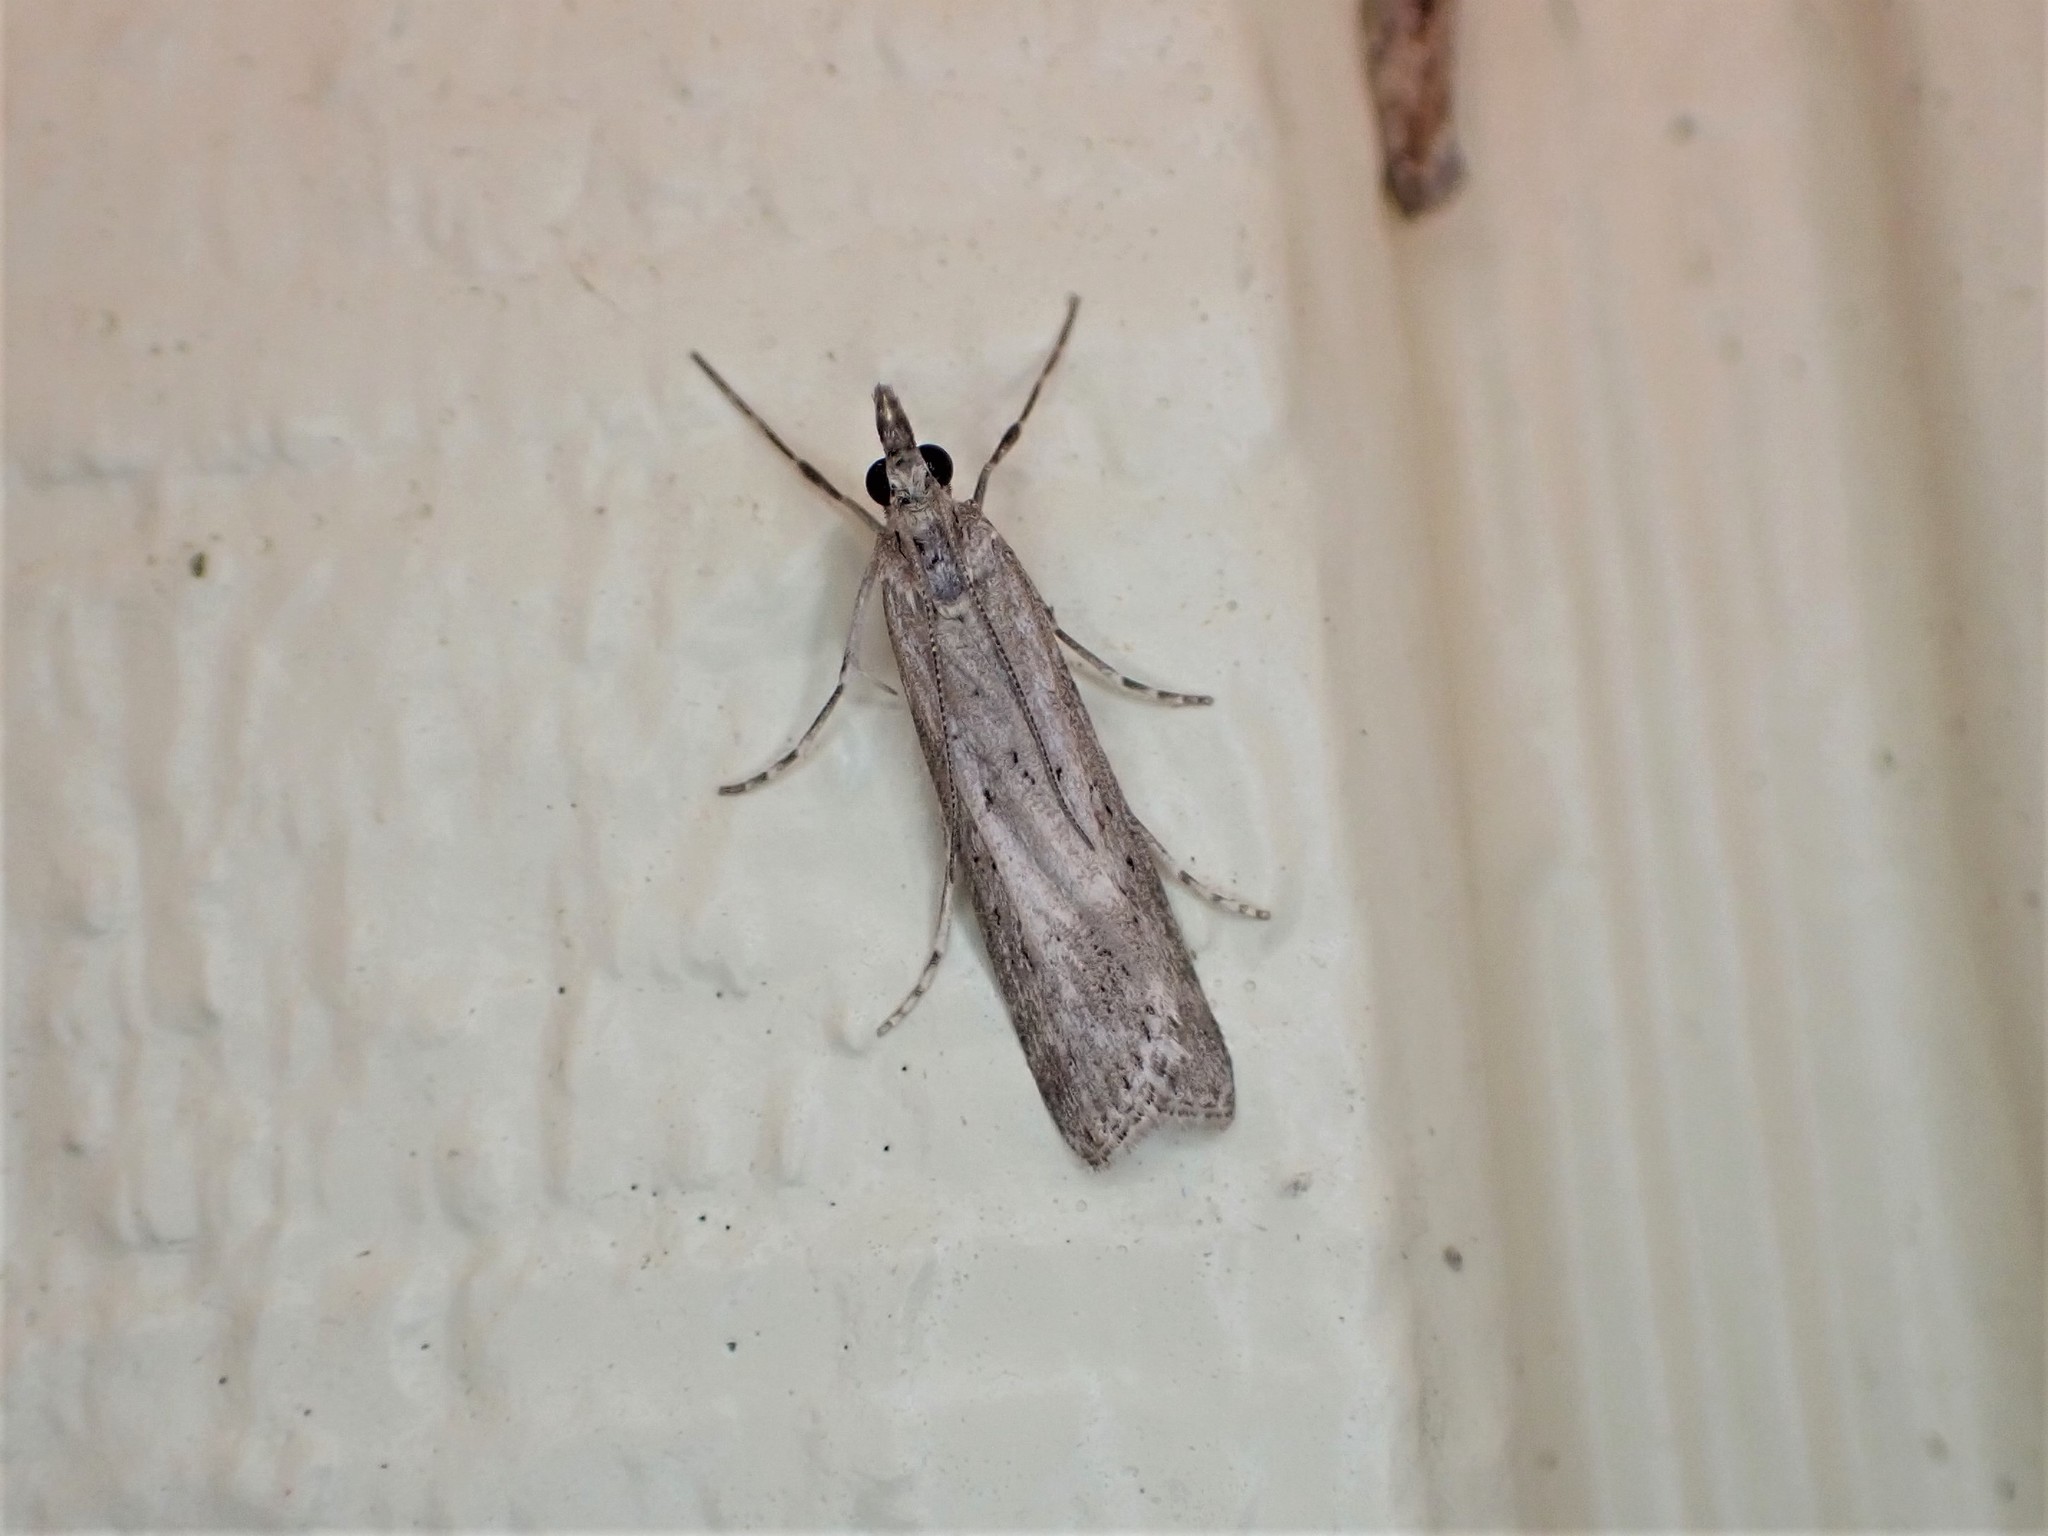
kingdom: Animalia
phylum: Arthropoda
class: Insecta
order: Lepidoptera
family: Crambidae
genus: Eudonia
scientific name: Eudonia leptalea
